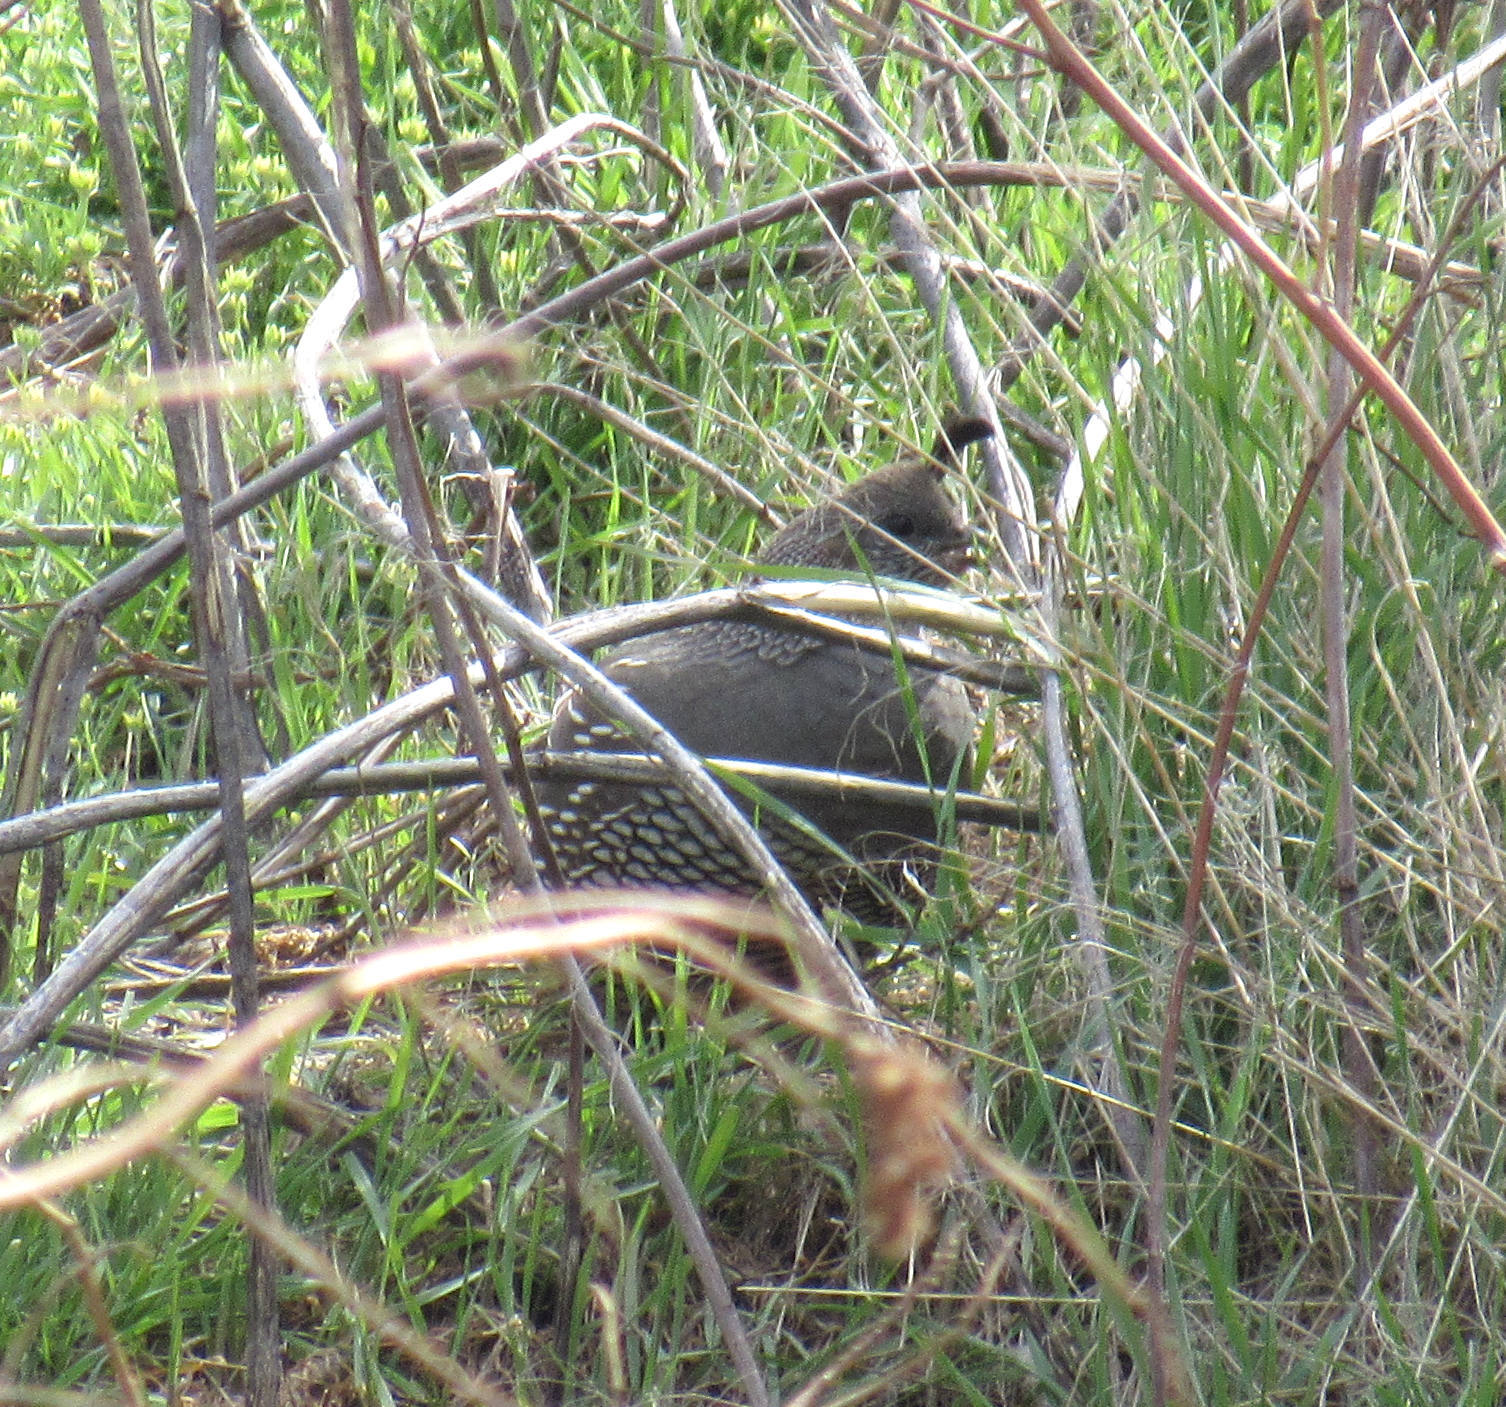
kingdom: Animalia
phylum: Chordata
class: Aves
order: Galliformes
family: Odontophoridae
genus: Callipepla
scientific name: Callipepla californica
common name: California quail
